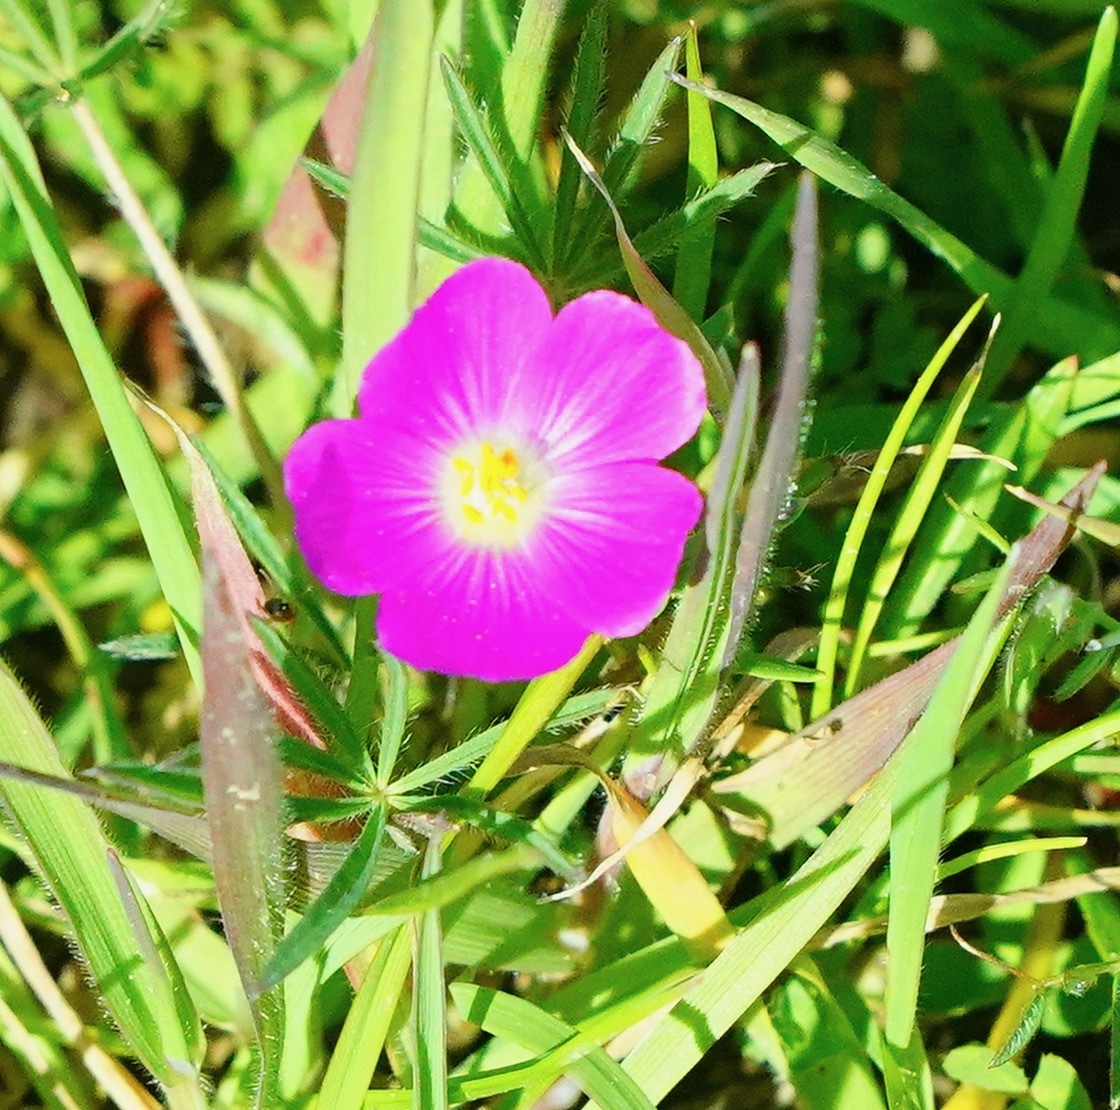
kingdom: Plantae
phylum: Tracheophyta
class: Magnoliopsida
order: Caryophyllales
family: Montiaceae
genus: Calandrinia
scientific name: Calandrinia menziesii
